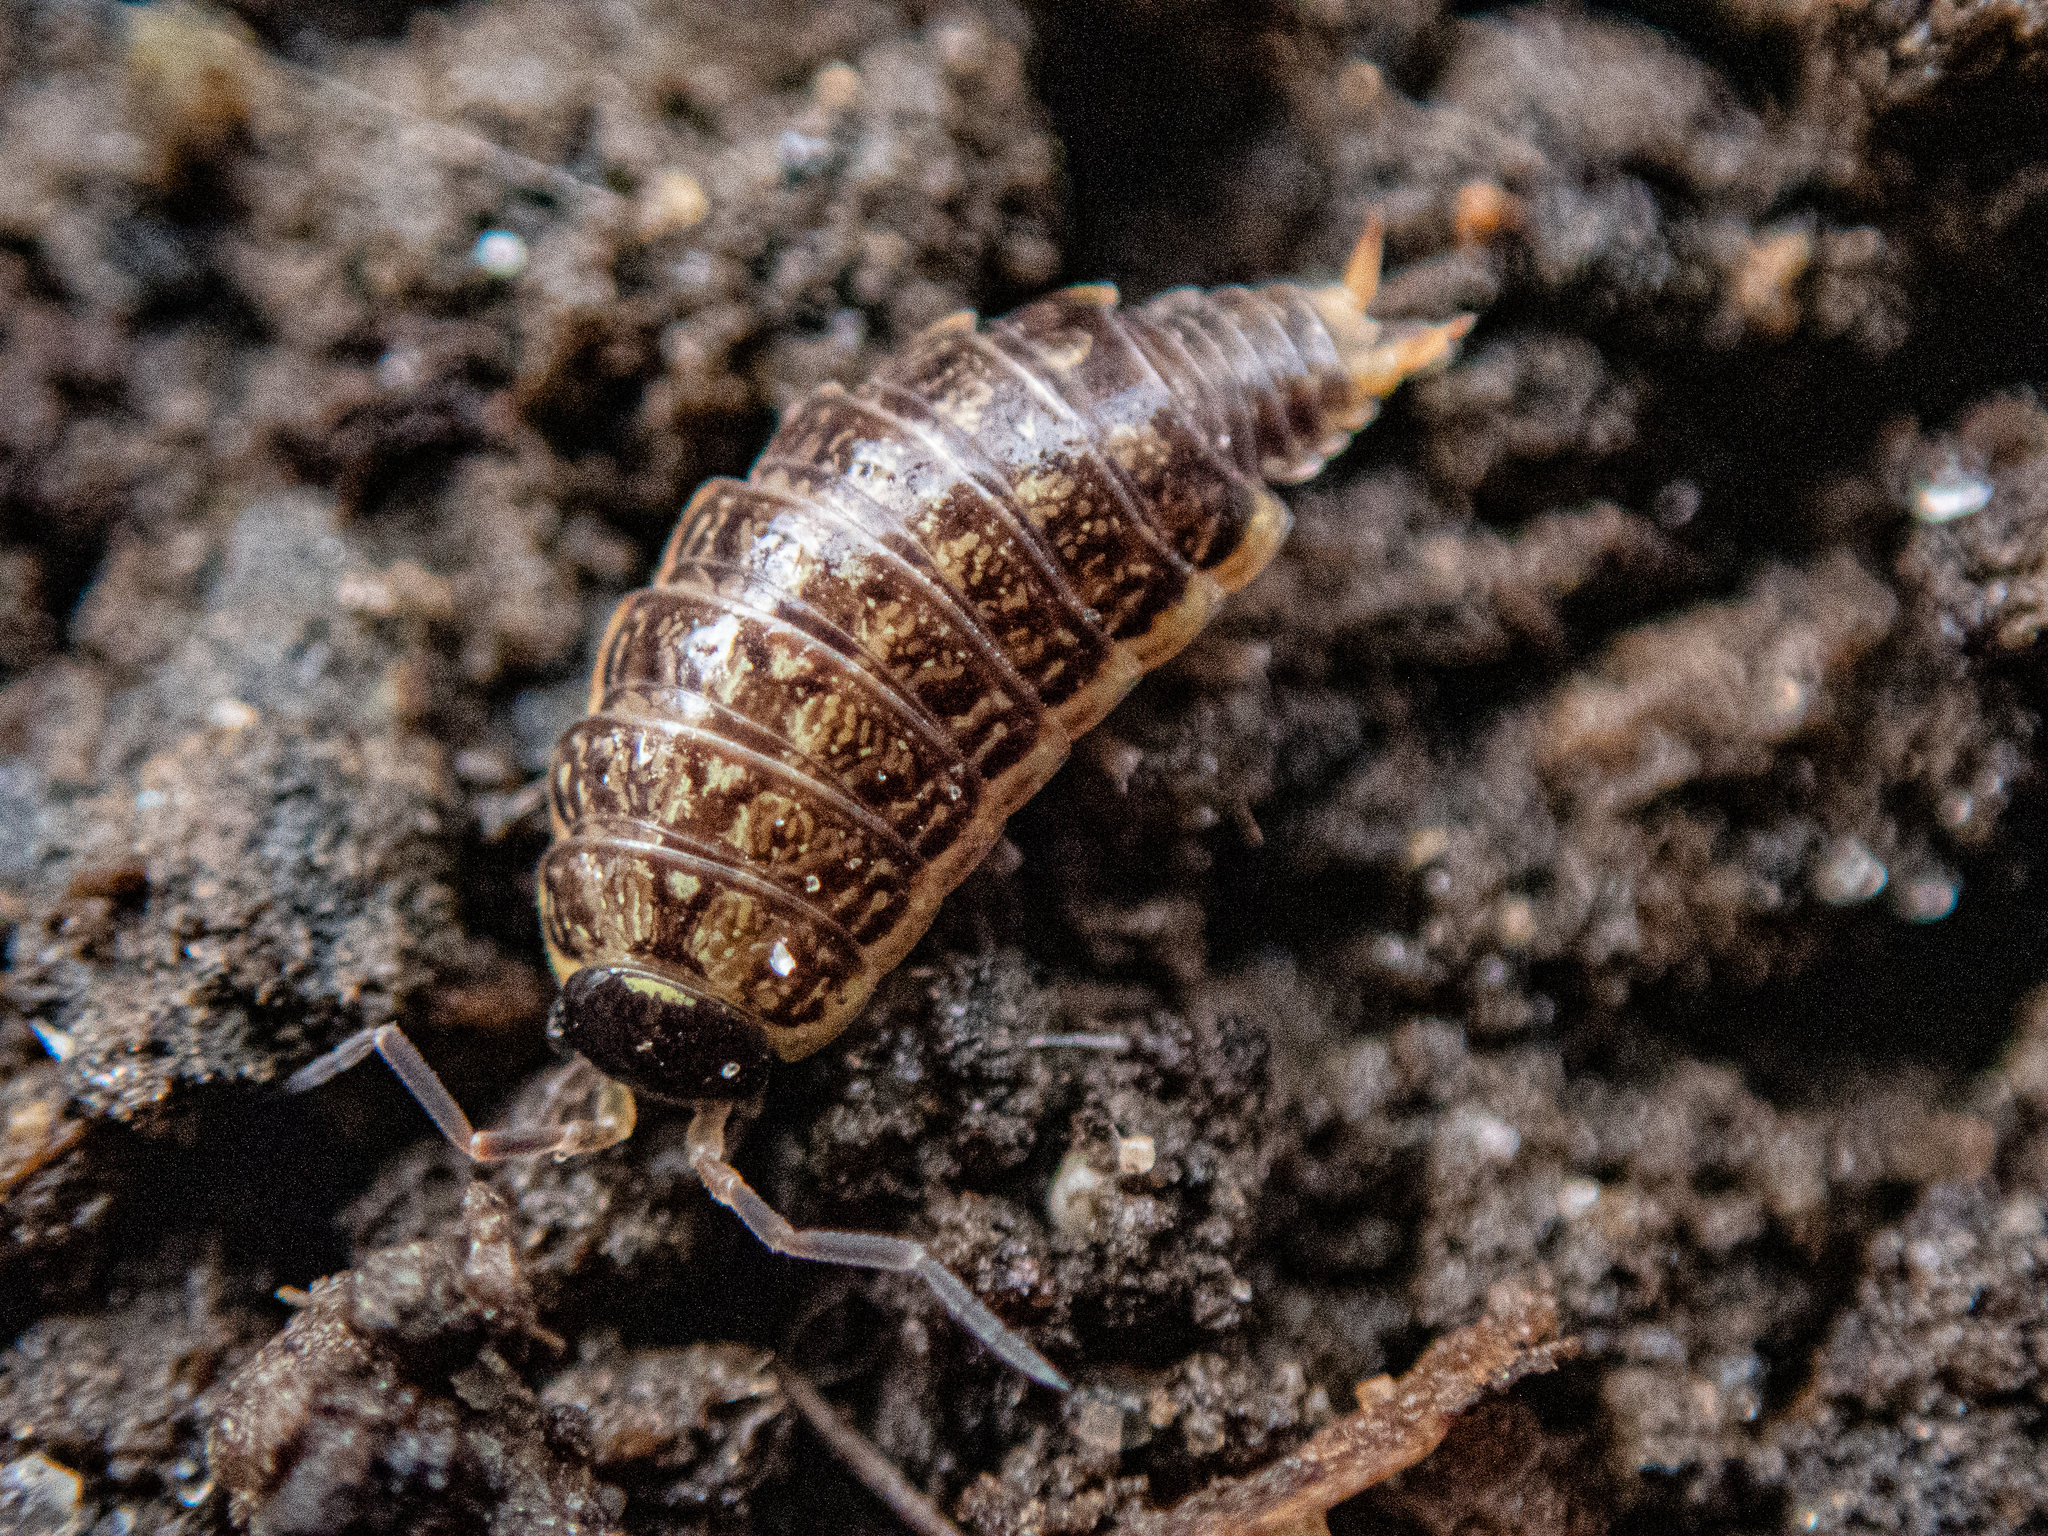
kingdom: Animalia
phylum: Arthropoda
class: Malacostraca
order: Isopoda
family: Philosciidae
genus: Philoscia
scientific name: Philoscia muscorum
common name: Common striped woodlouse
